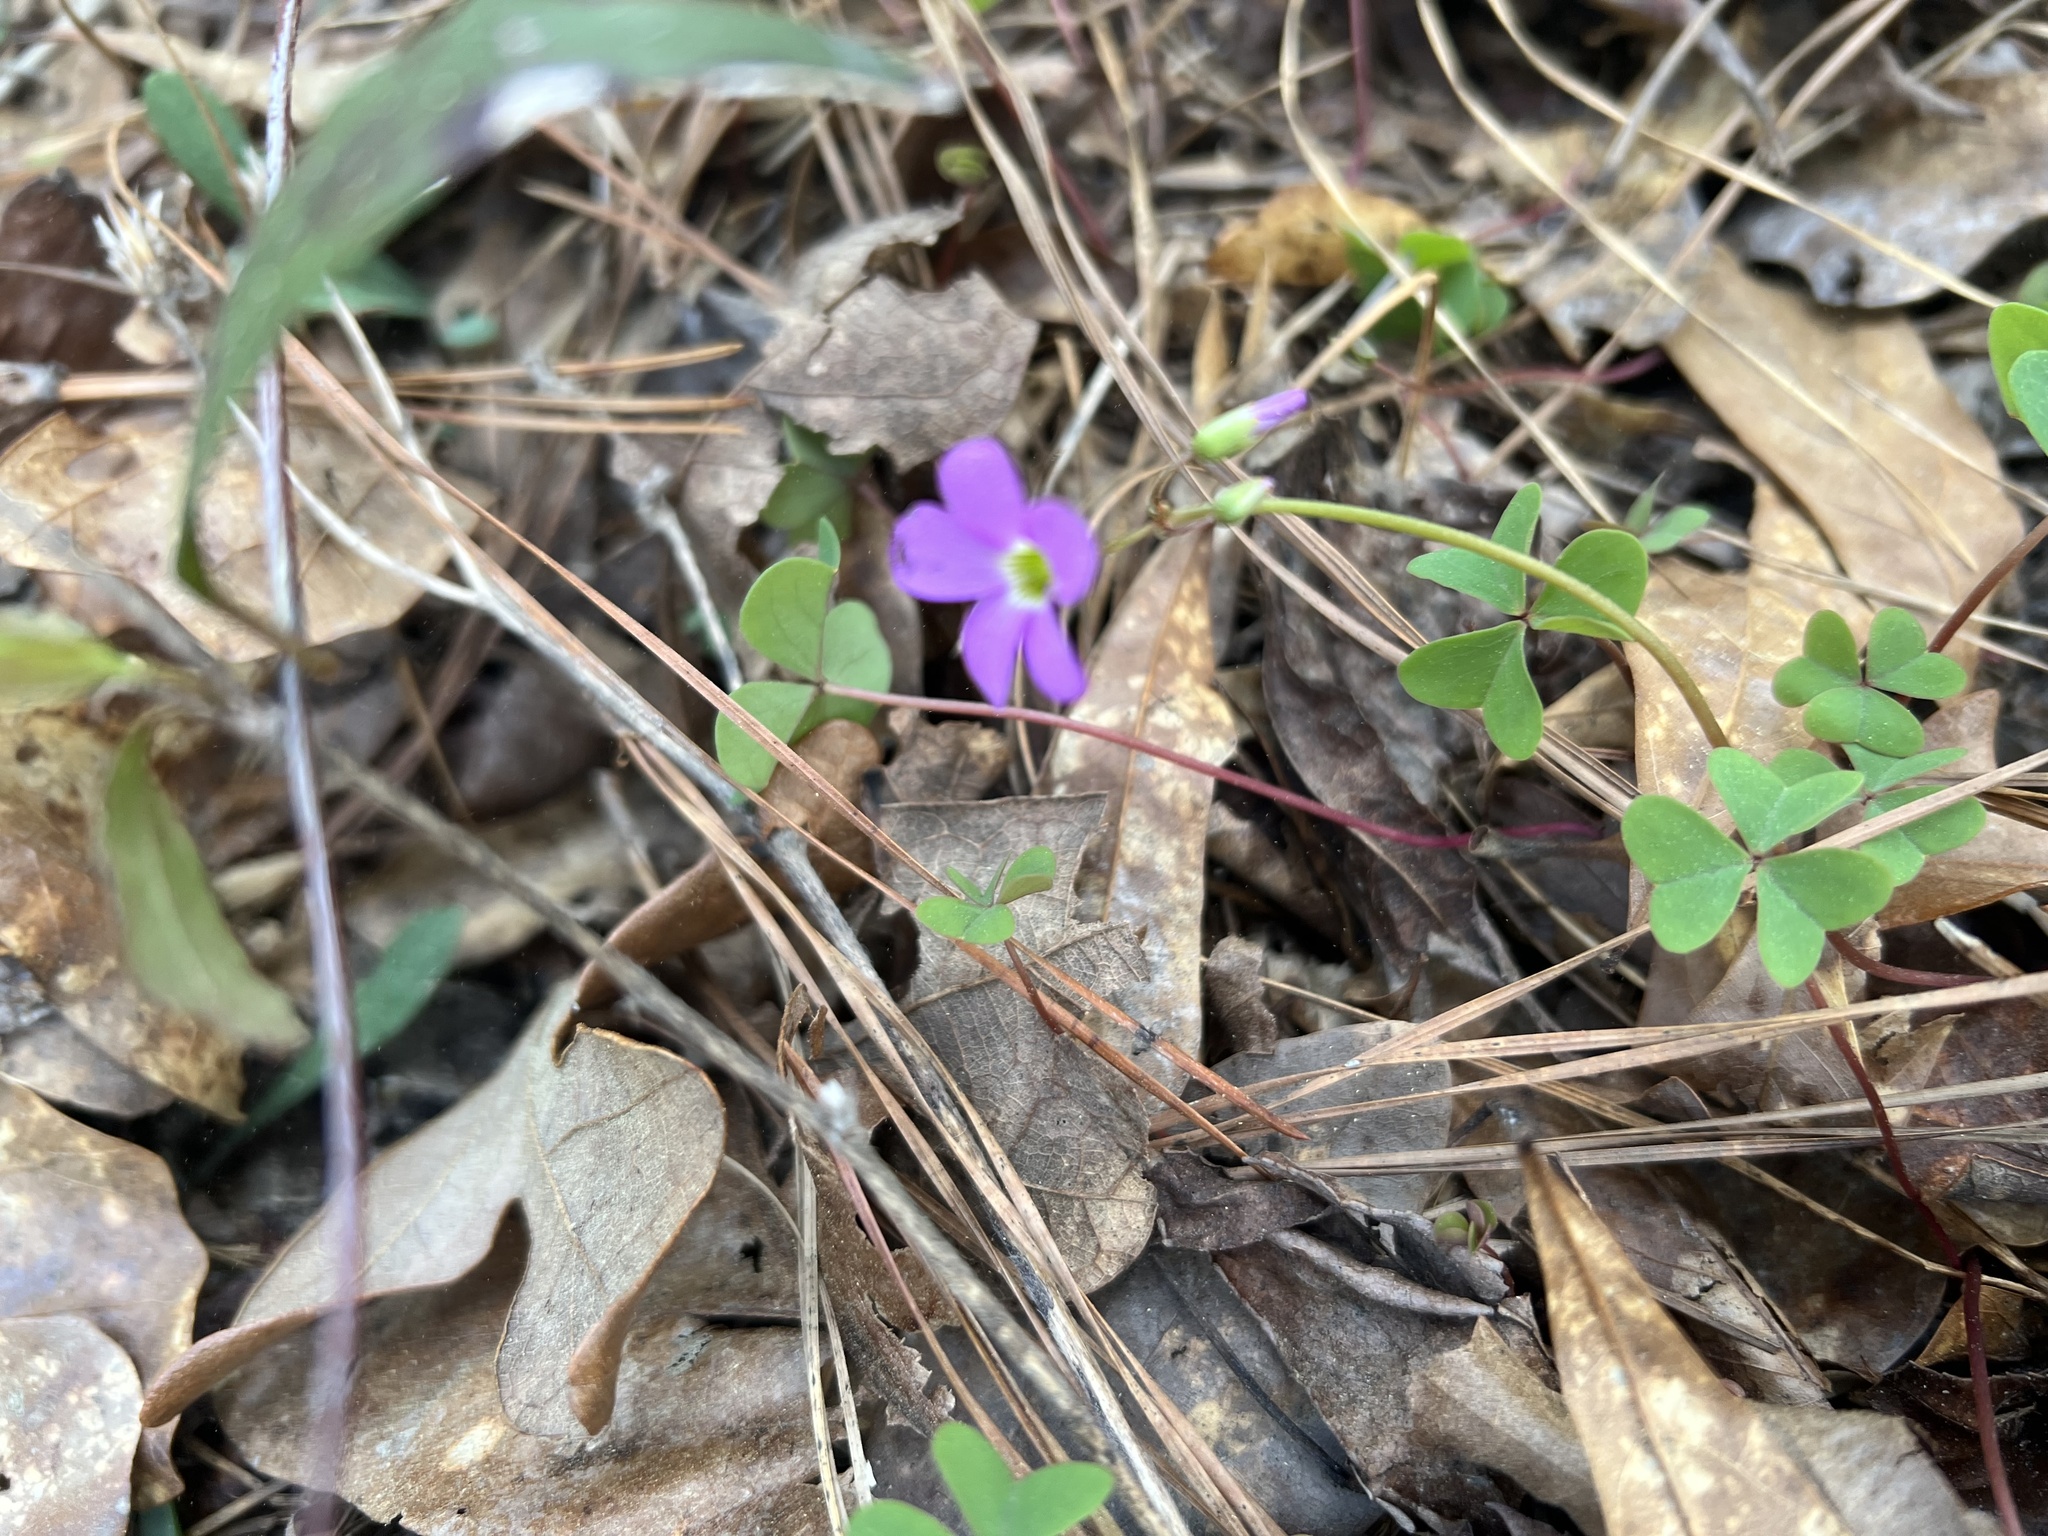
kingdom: Plantae
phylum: Tracheophyta
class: Magnoliopsida
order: Oxalidales
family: Oxalidaceae
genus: Oxalis
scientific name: Oxalis violacea
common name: Violet wood-sorrel
